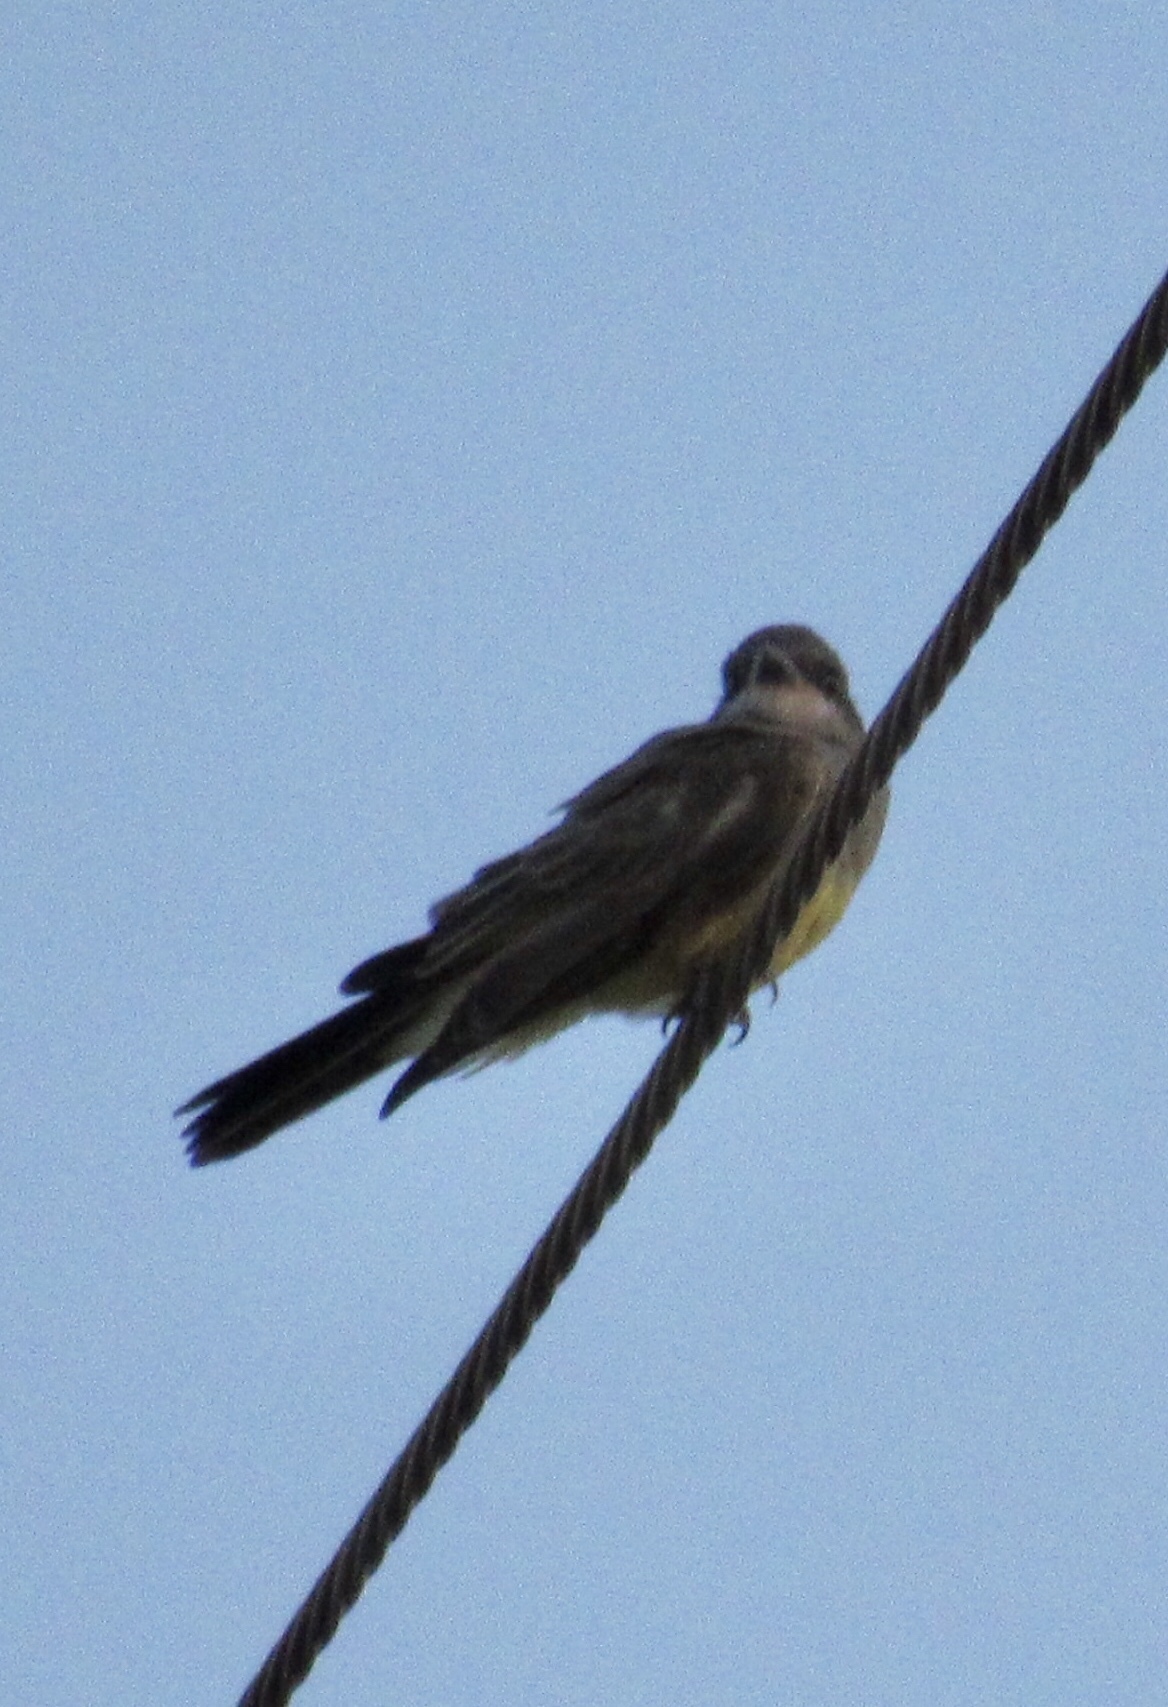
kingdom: Animalia
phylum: Chordata
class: Aves
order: Passeriformes
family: Tyrannidae
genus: Tyrannus
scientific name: Tyrannus vociferans
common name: Cassin's kingbird
